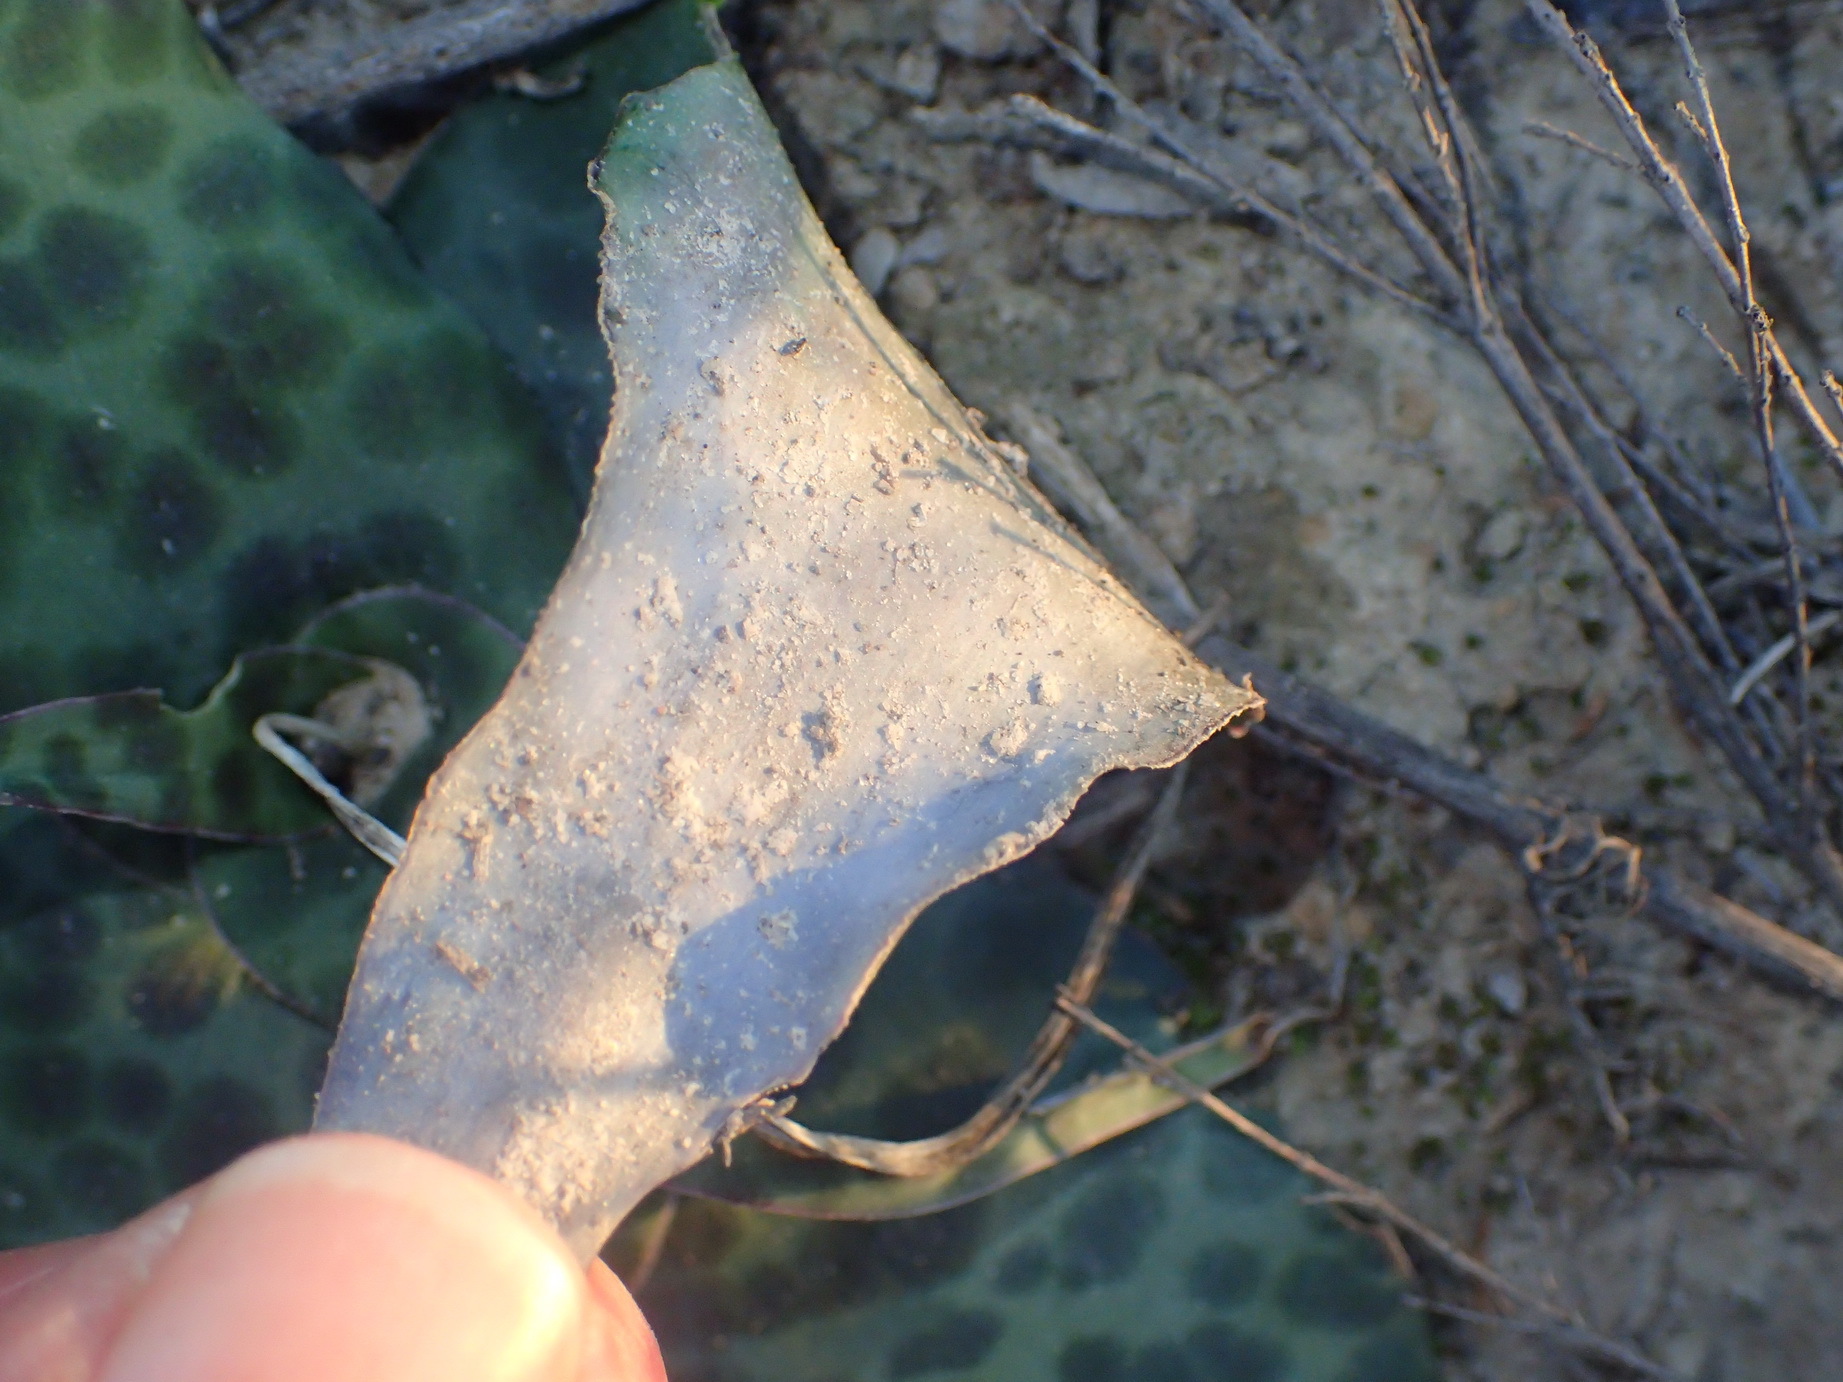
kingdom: Plantae
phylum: Tracheophyta
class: Liliopsida
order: Asparagales
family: Asparagaceae
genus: Ledebouria
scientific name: Ledebouria ensifolia
